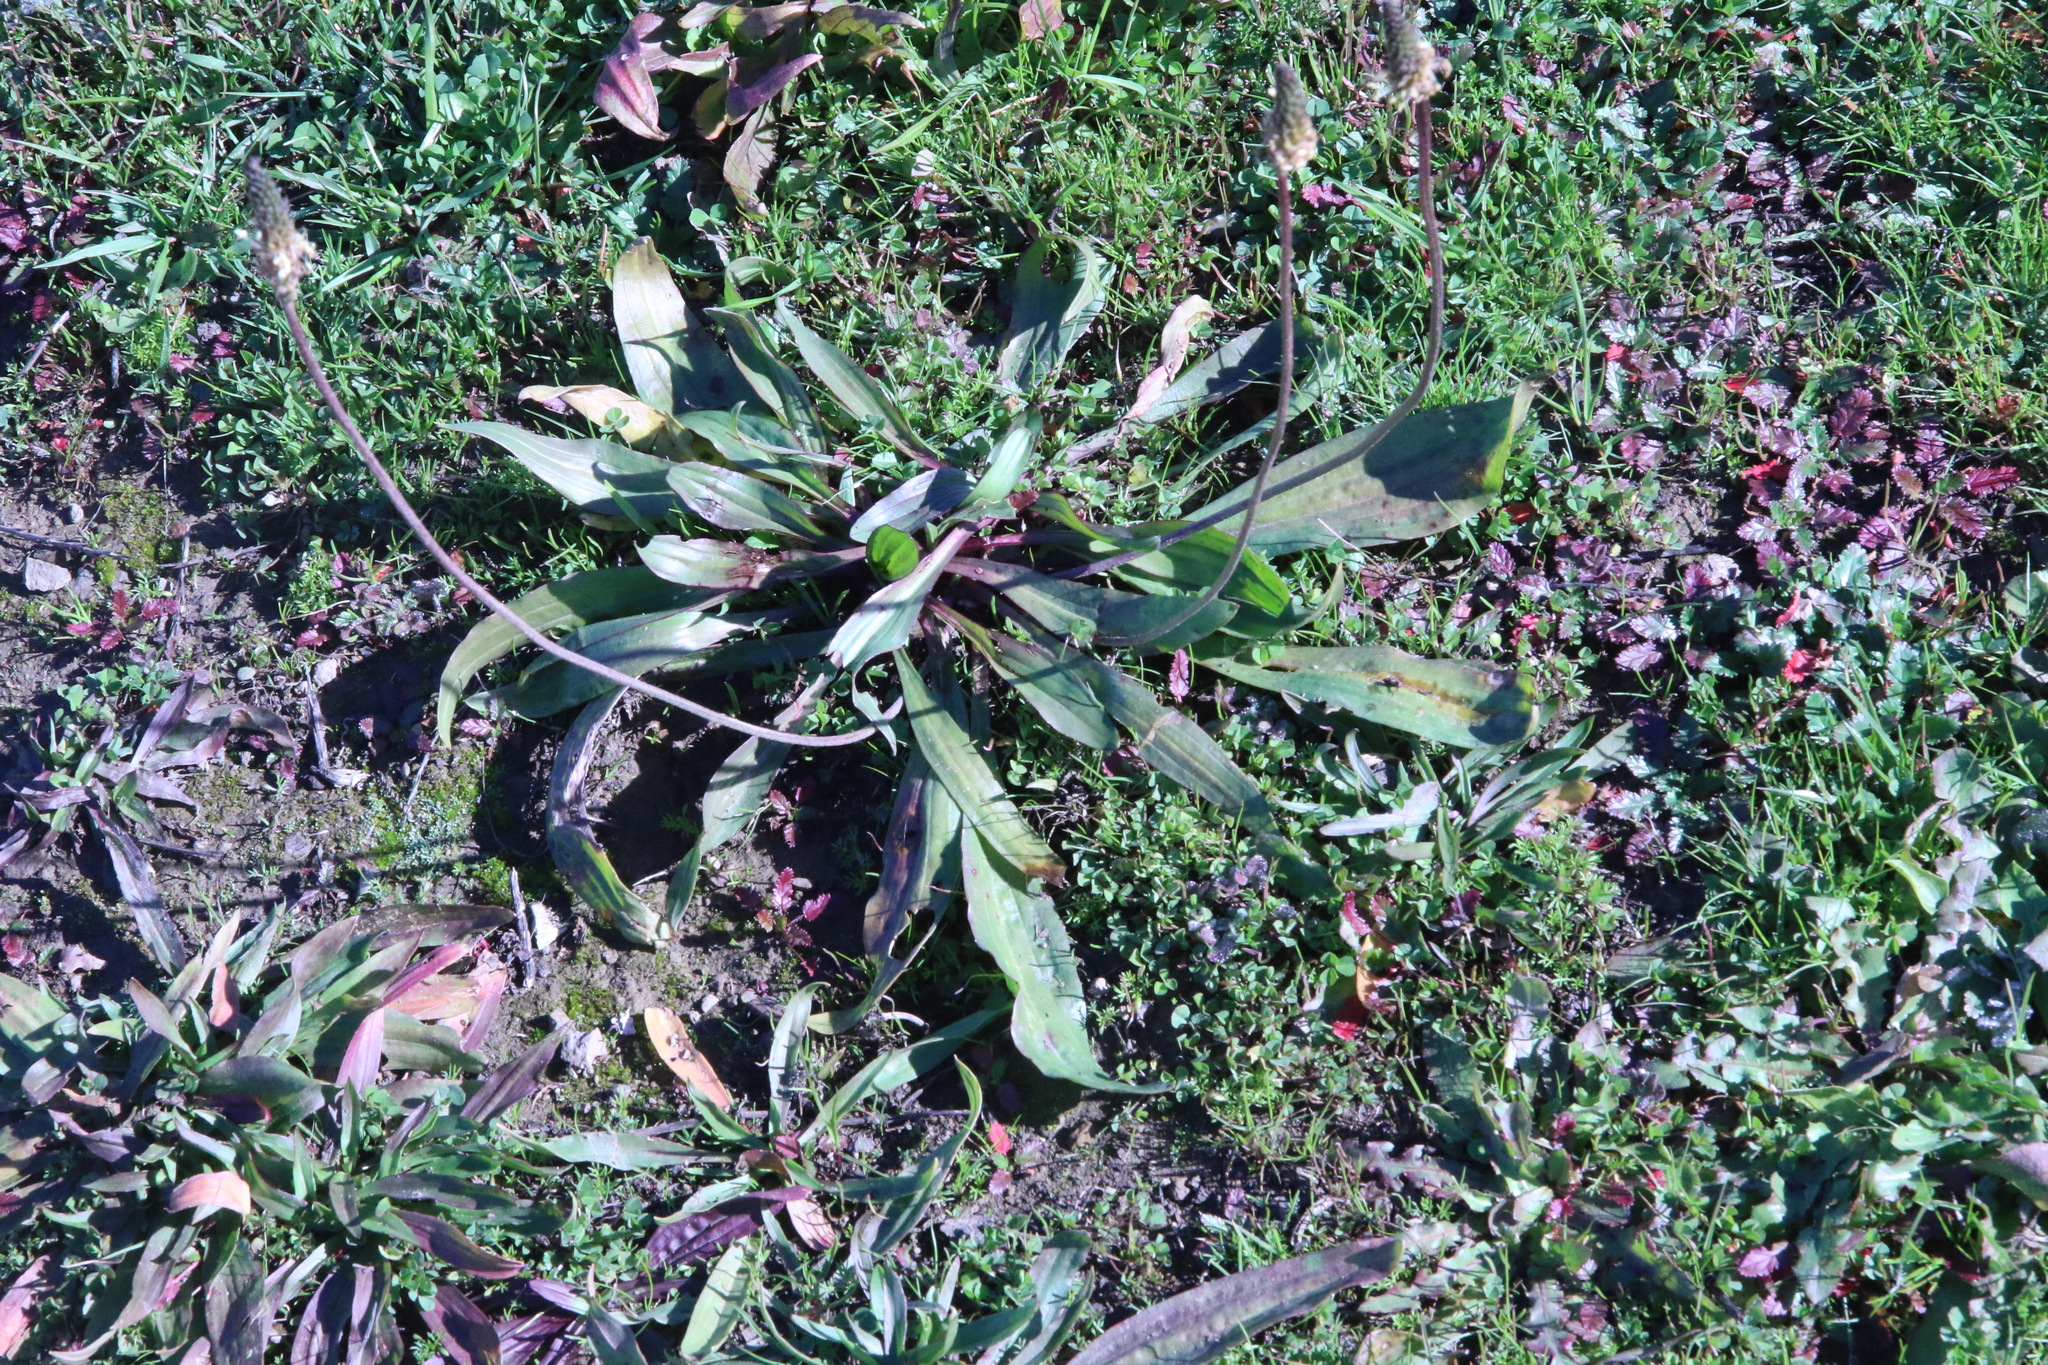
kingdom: Plantae
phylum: Tracheophyta
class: Magnoliopsida
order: Lamiales
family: Plantaginaceae
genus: Plantago
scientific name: Plantago lanceolata
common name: Ribwort plantain
